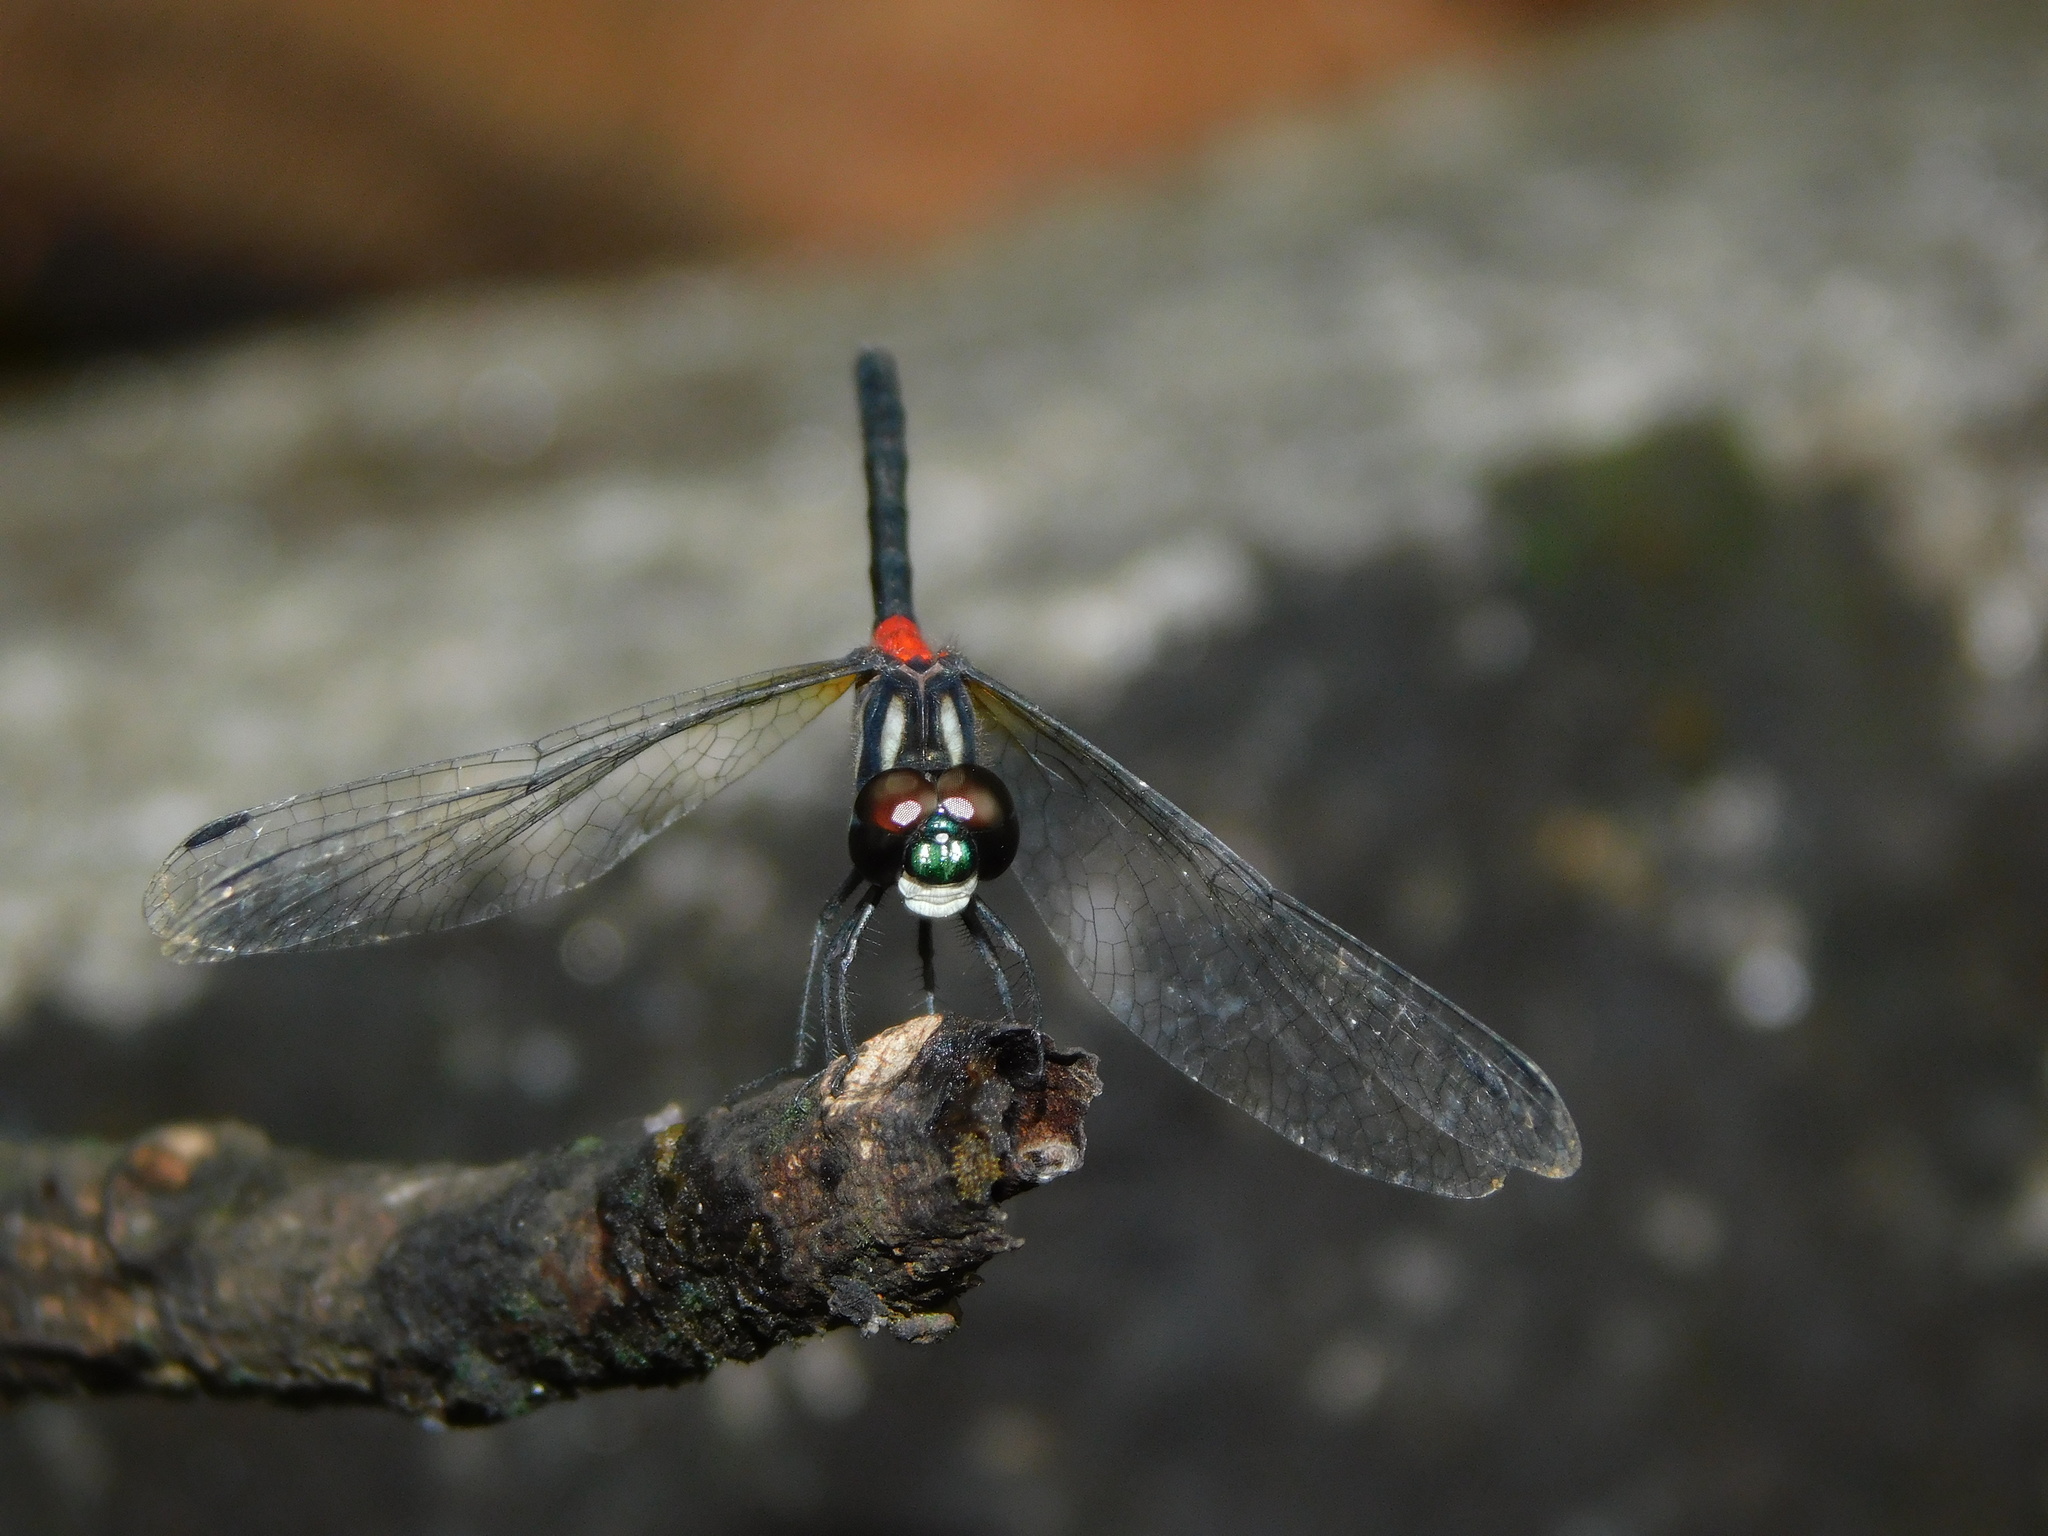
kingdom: Animalia
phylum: Arthropoda
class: Insecta
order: Odonata
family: Libellulidae
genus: Epithemis
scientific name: Epithemis mariae
